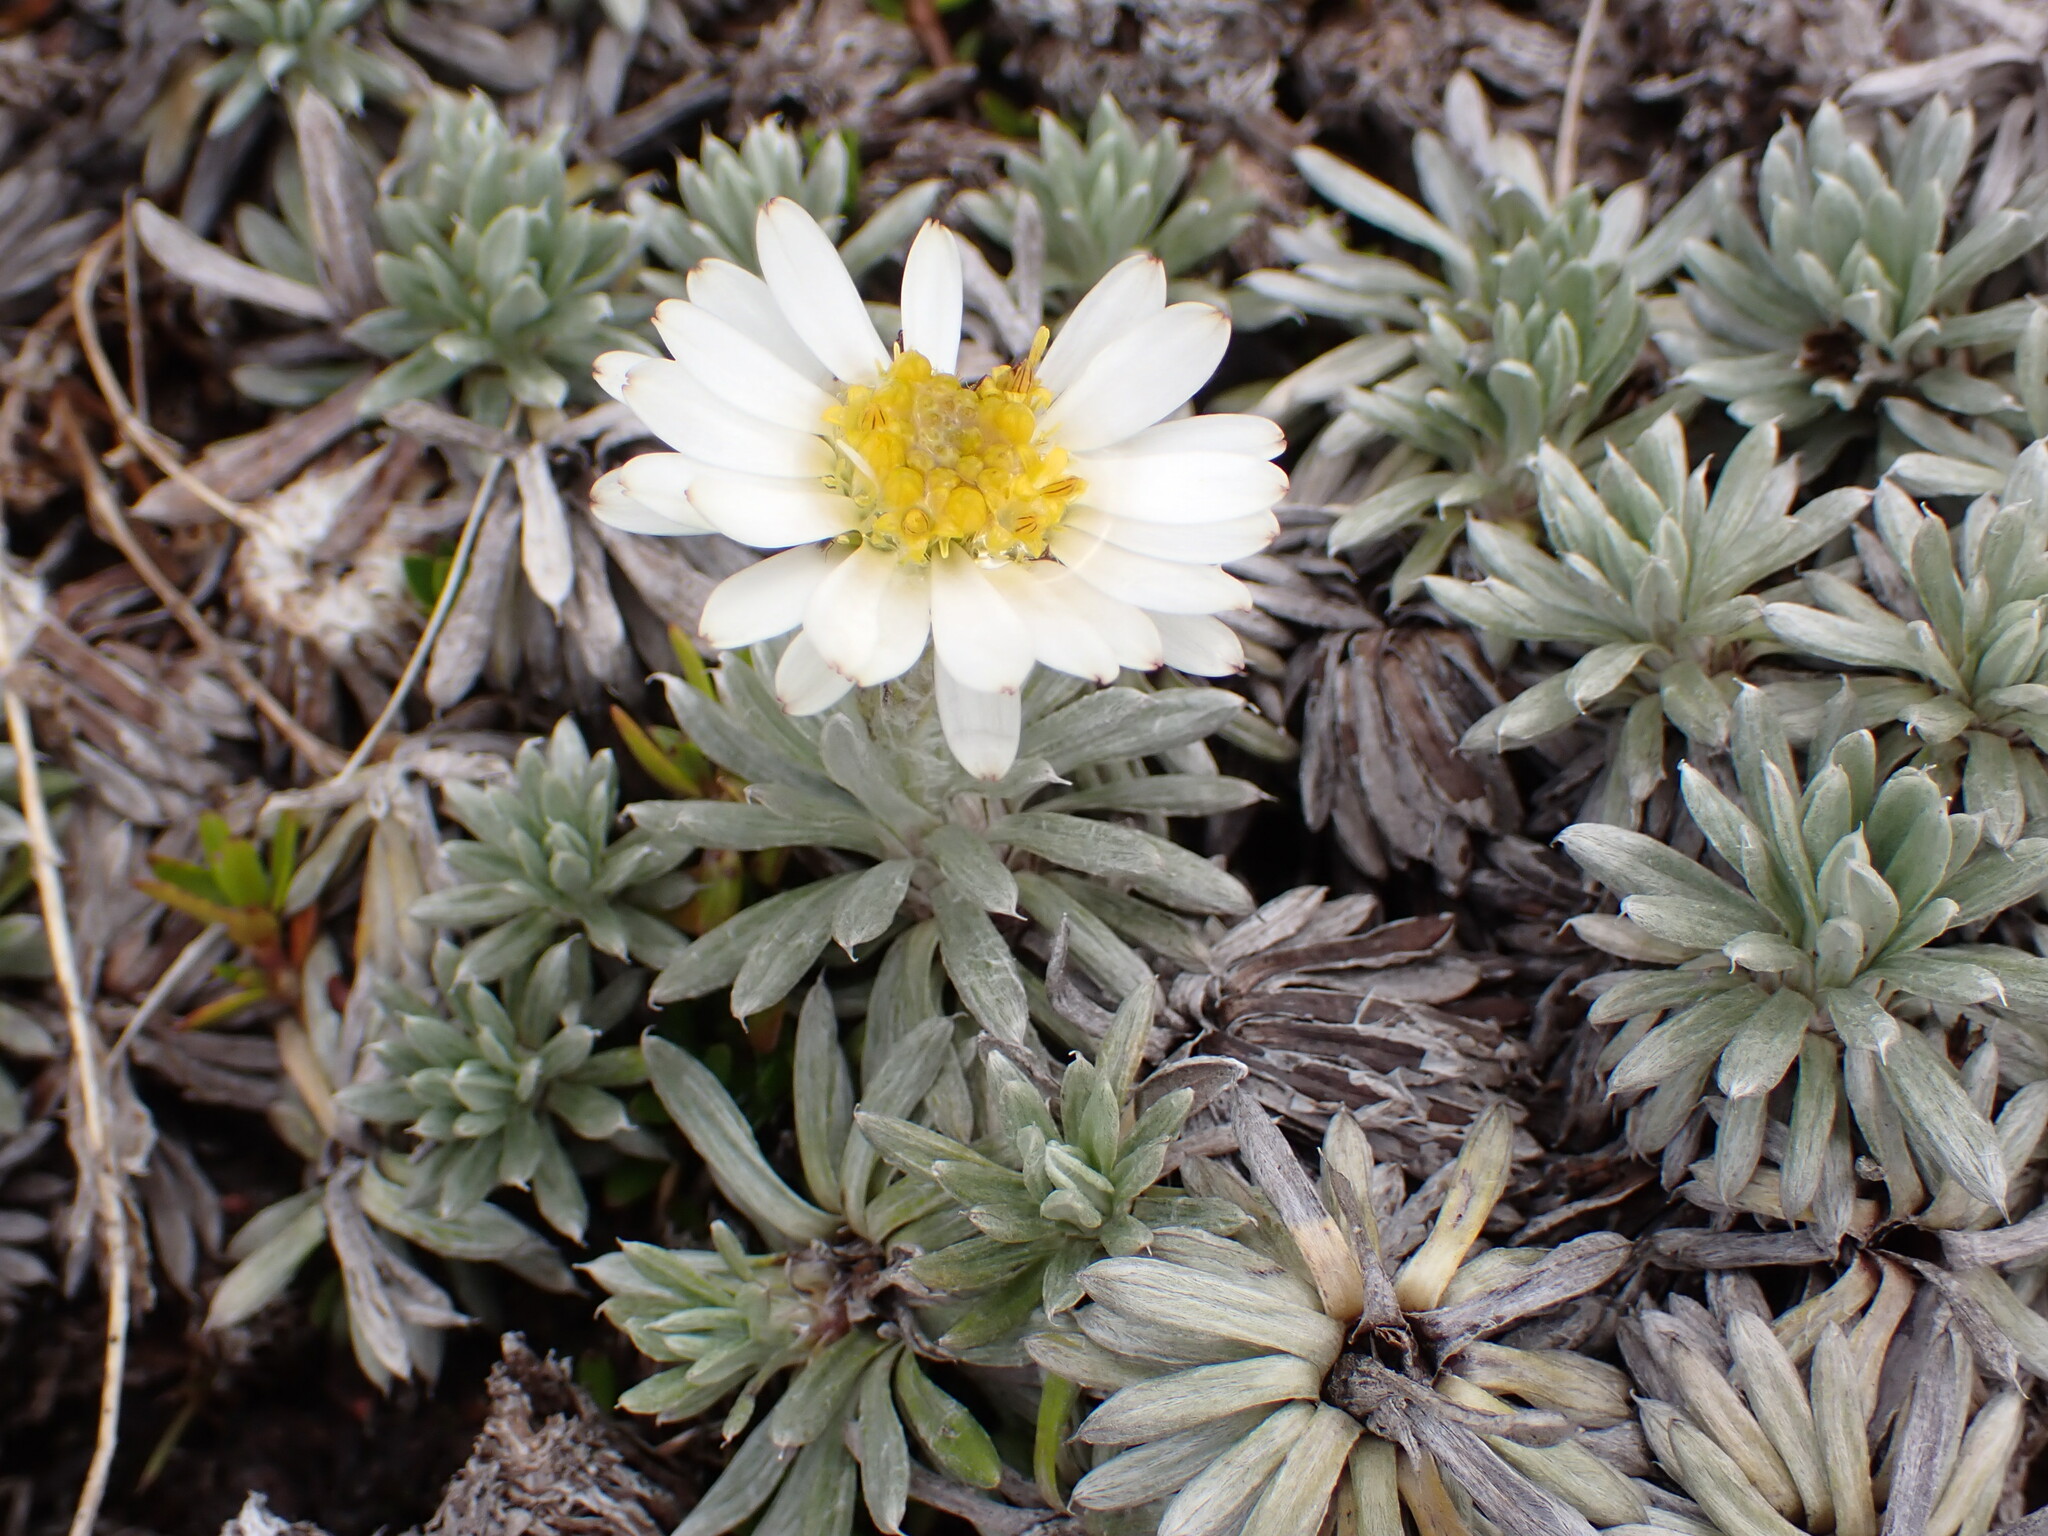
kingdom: Plantae
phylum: Tracheophyta
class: Magnoliopsida
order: Asterales
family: Asteraceae
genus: Celmisia
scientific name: Celmisia hectorii
